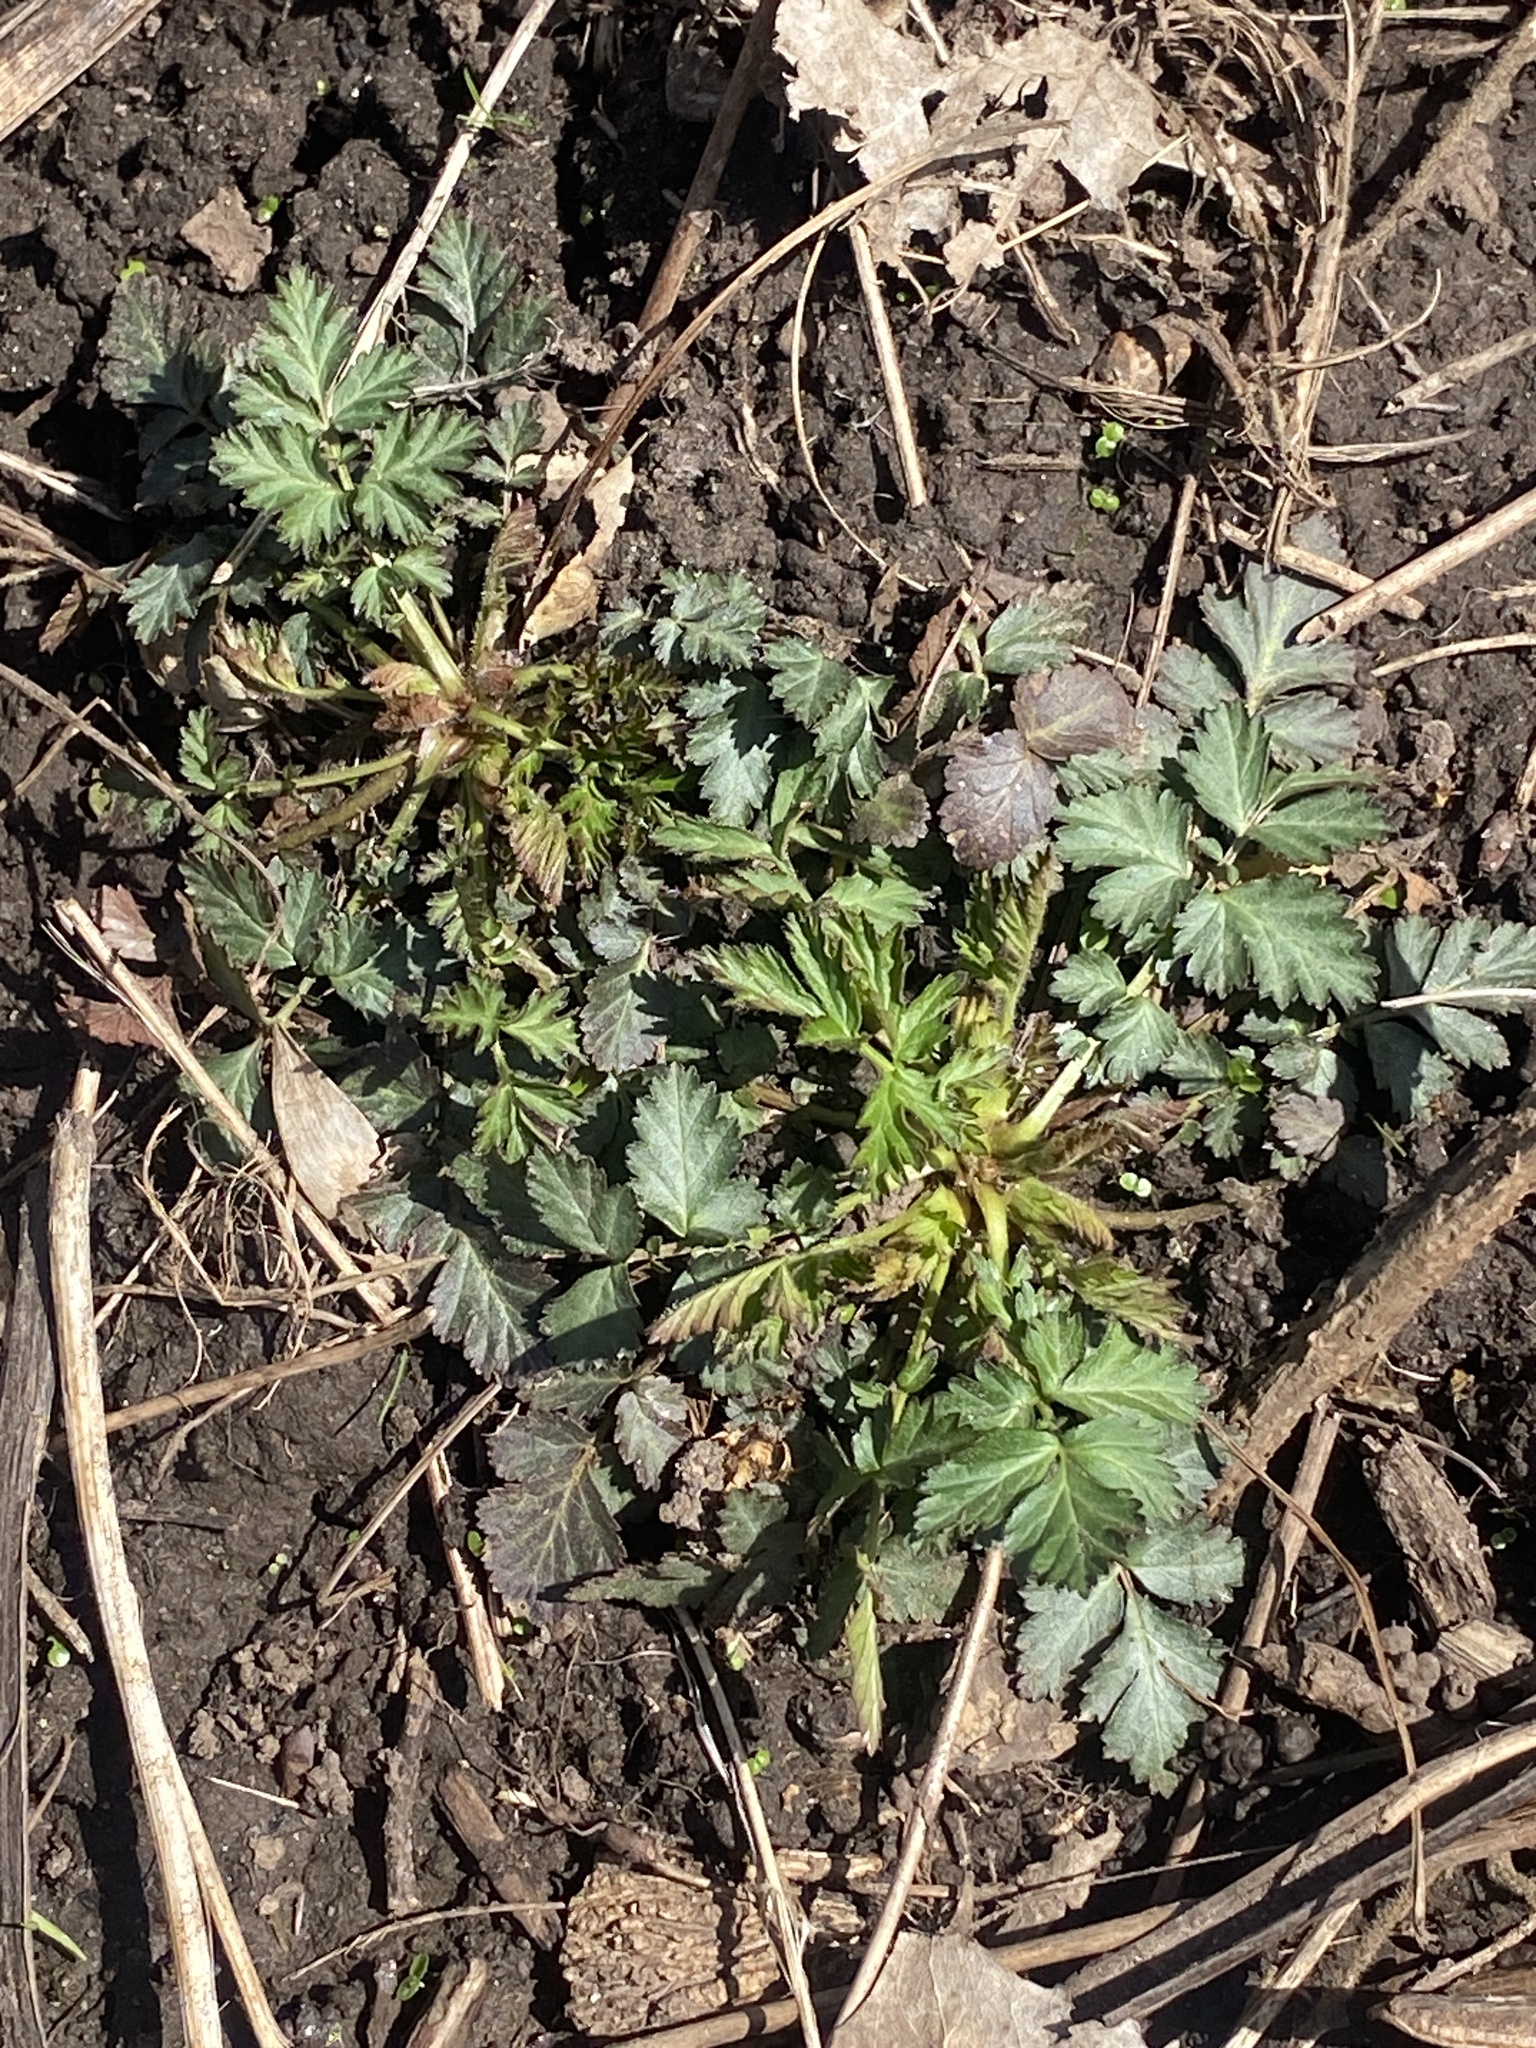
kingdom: Plantae
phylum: Tracheophyta
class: Magnoliopsida
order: Rosales
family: Rosaceae
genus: Geum
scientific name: Geum canadense
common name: White avens
